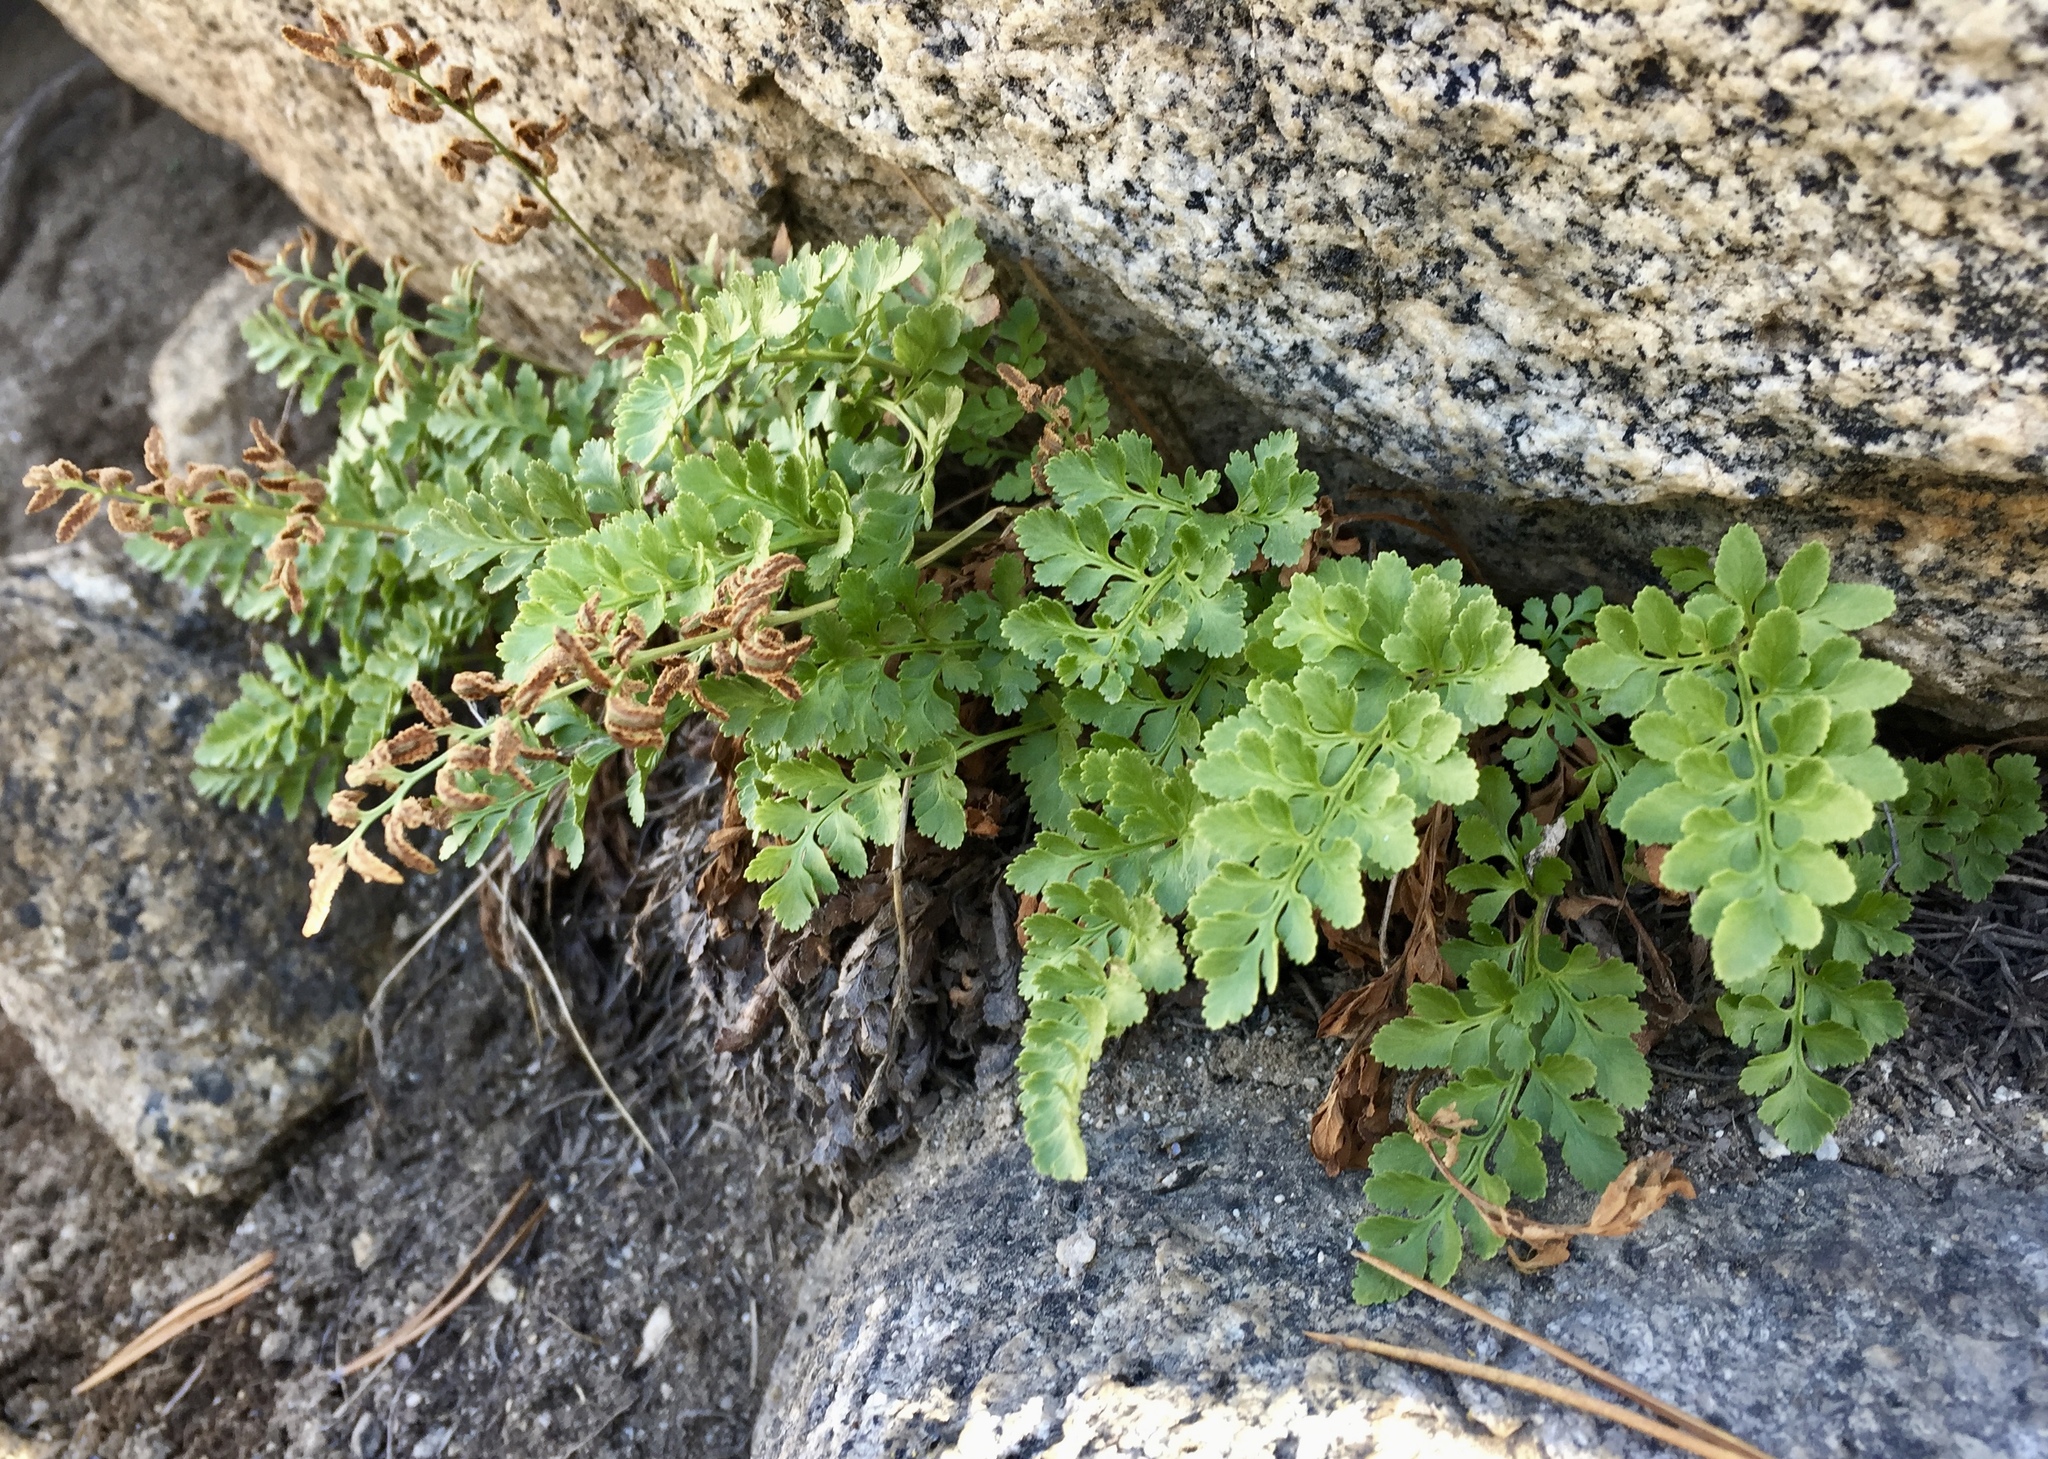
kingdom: Plantae
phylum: Tracheophyta
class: Polypodiopsida
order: Polypodiales
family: Pteridaceae
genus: Cryptogramma
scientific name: Cryptogramma acrostichoides
